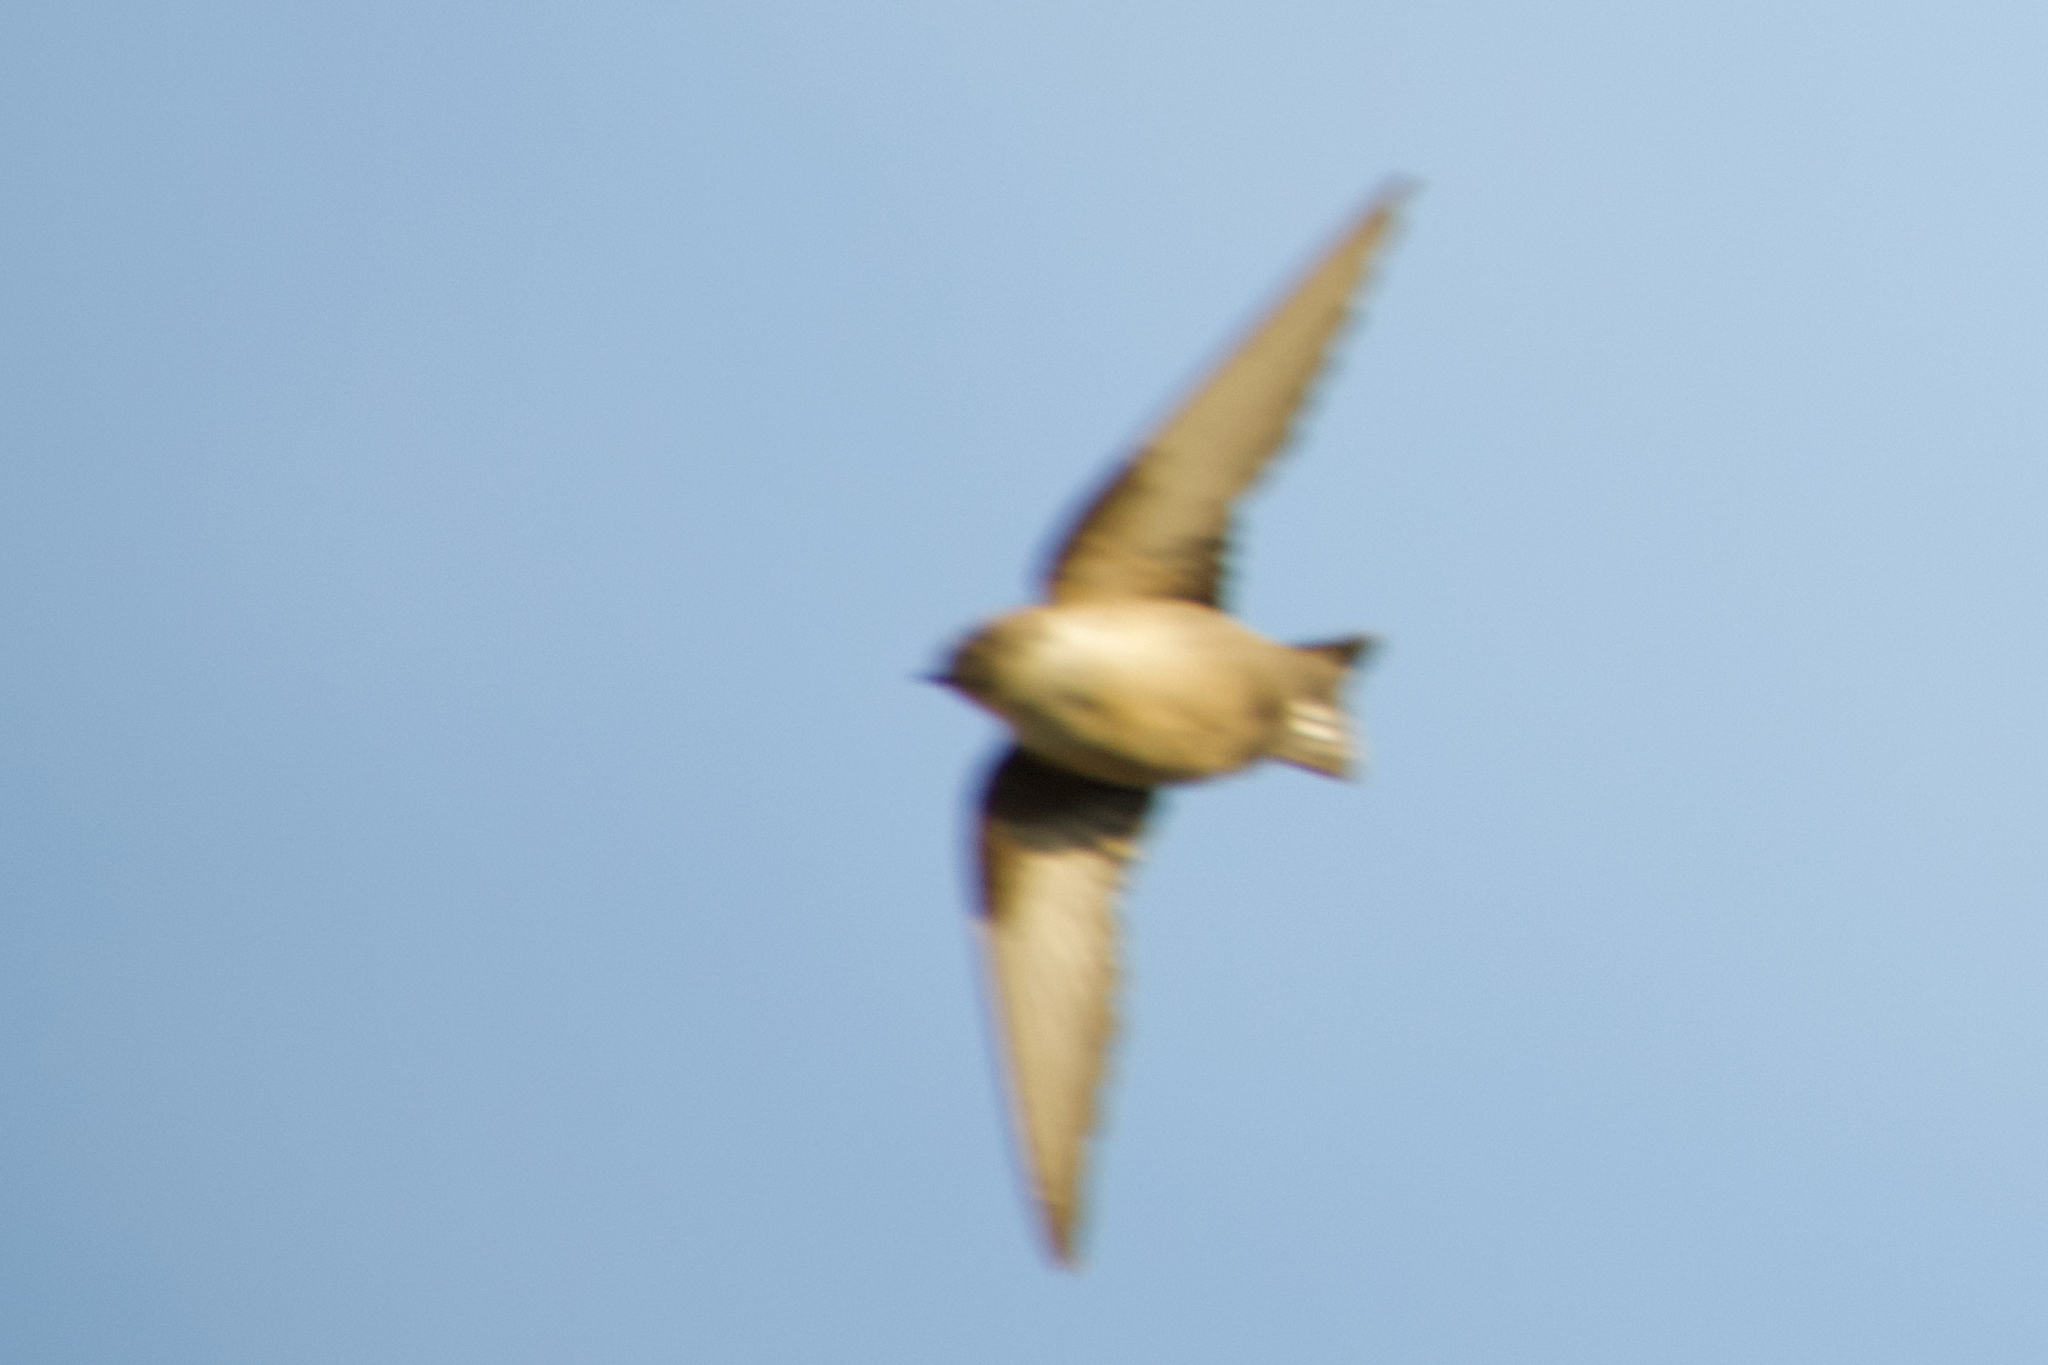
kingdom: Animalia
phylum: Chordata
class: Aves
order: Passeriformes
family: Hirundinidae
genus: Ptyonoprogne
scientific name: Ptyonoprogne rupestris
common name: Eurasian crag martin
